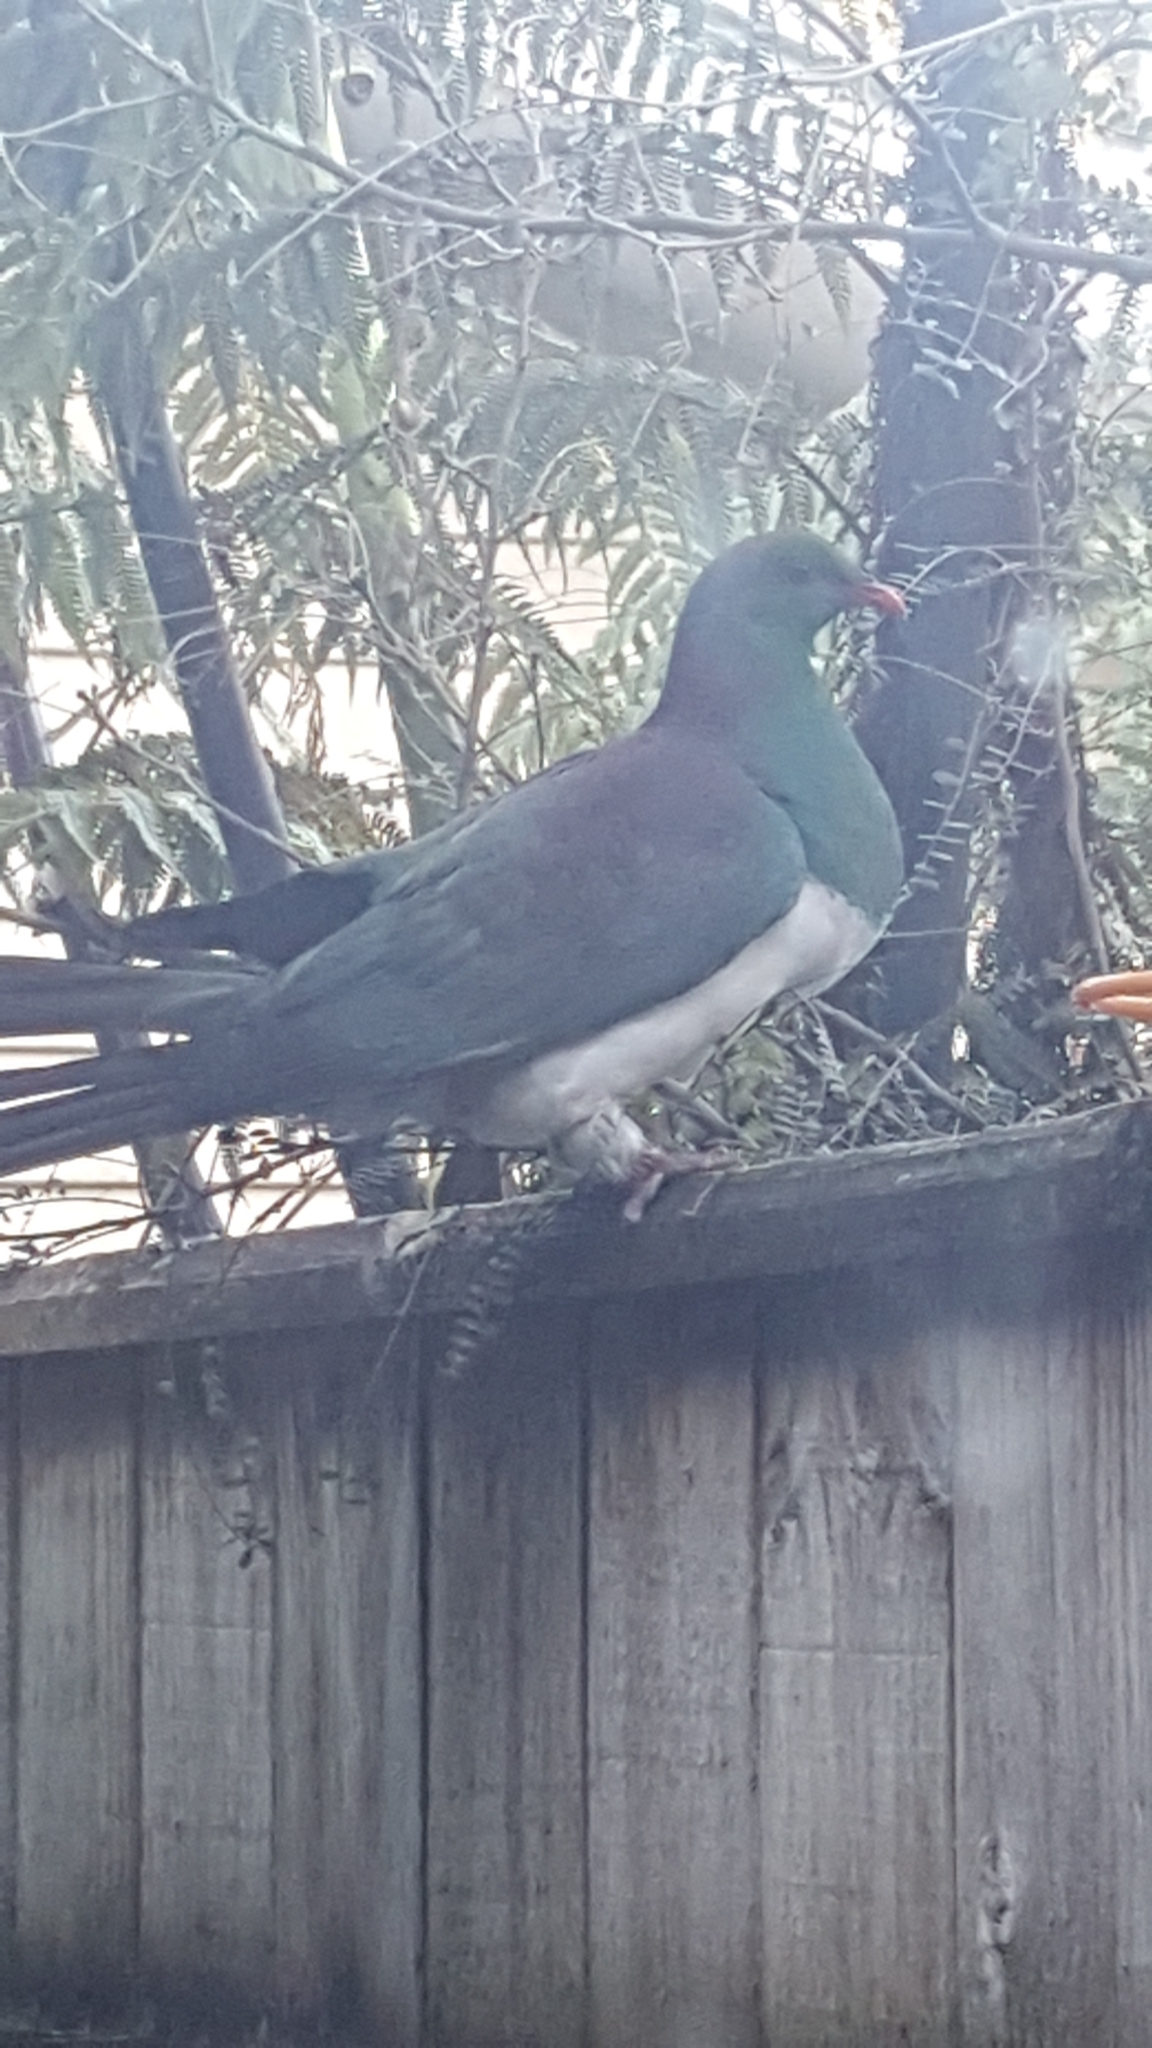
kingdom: Animalia
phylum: Chordata
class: Aves
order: Columbiformes
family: Columbidae
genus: Hemiphaga
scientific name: Hemiphaga novaeseelandiae
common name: New zealand pigeon
